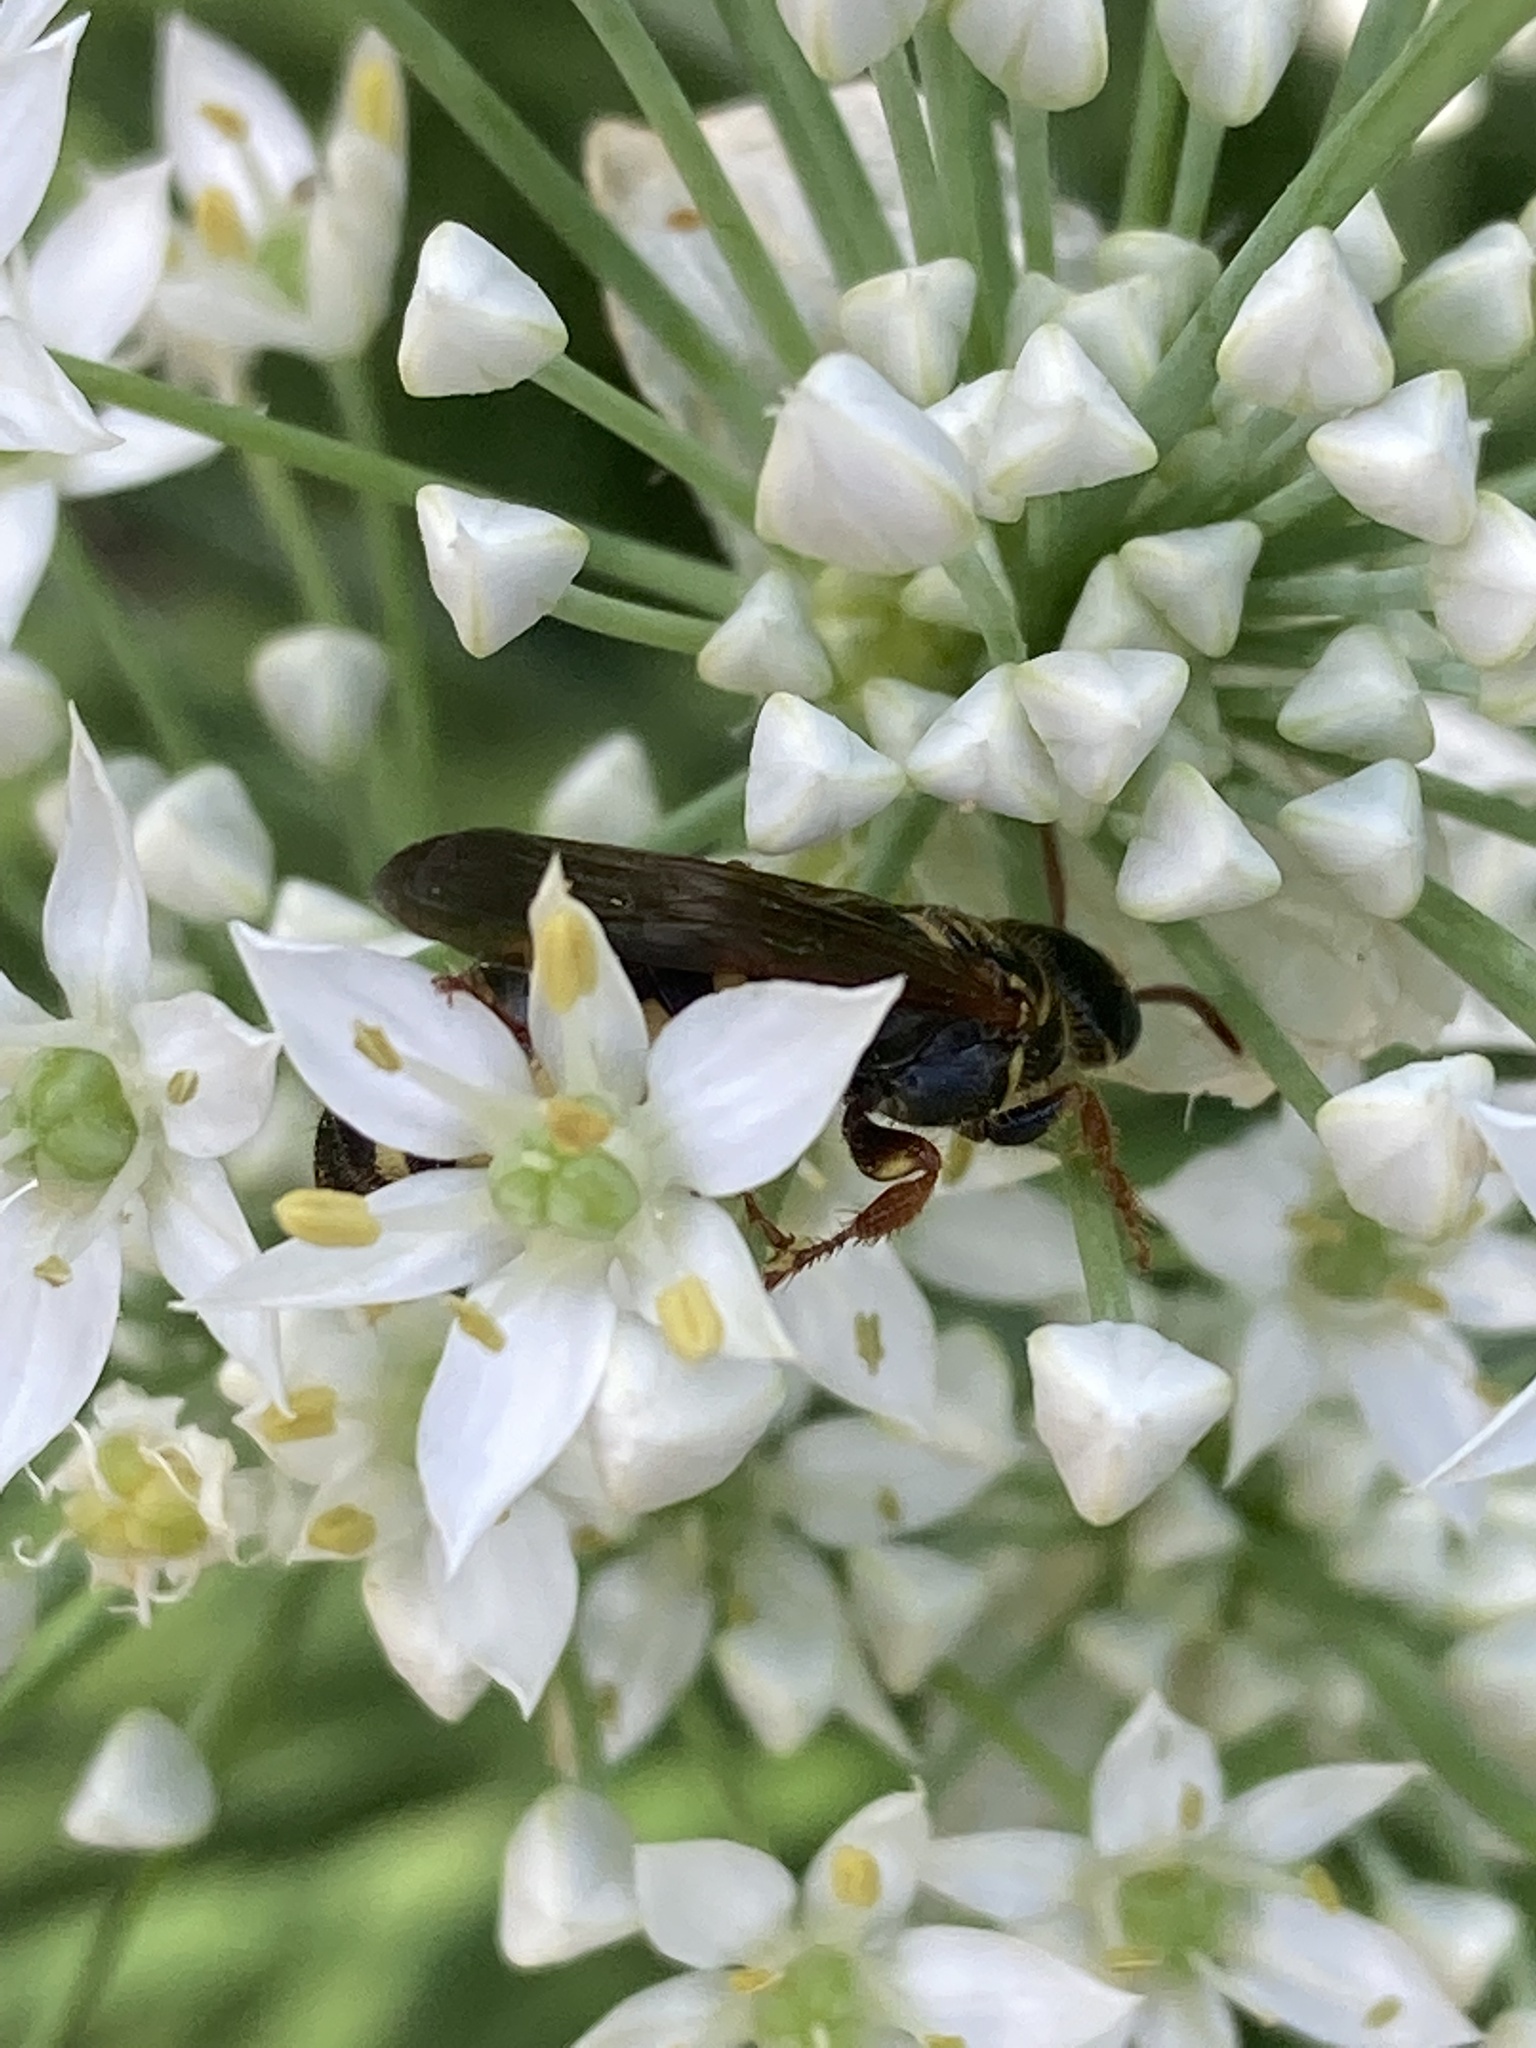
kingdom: Animalia
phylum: Arthropoda
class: Insecta
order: Hymenoptera
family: Tiphiidae
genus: Myzinum
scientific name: Myzinum quinquecinctum
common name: Five-banded thynnid wasp
